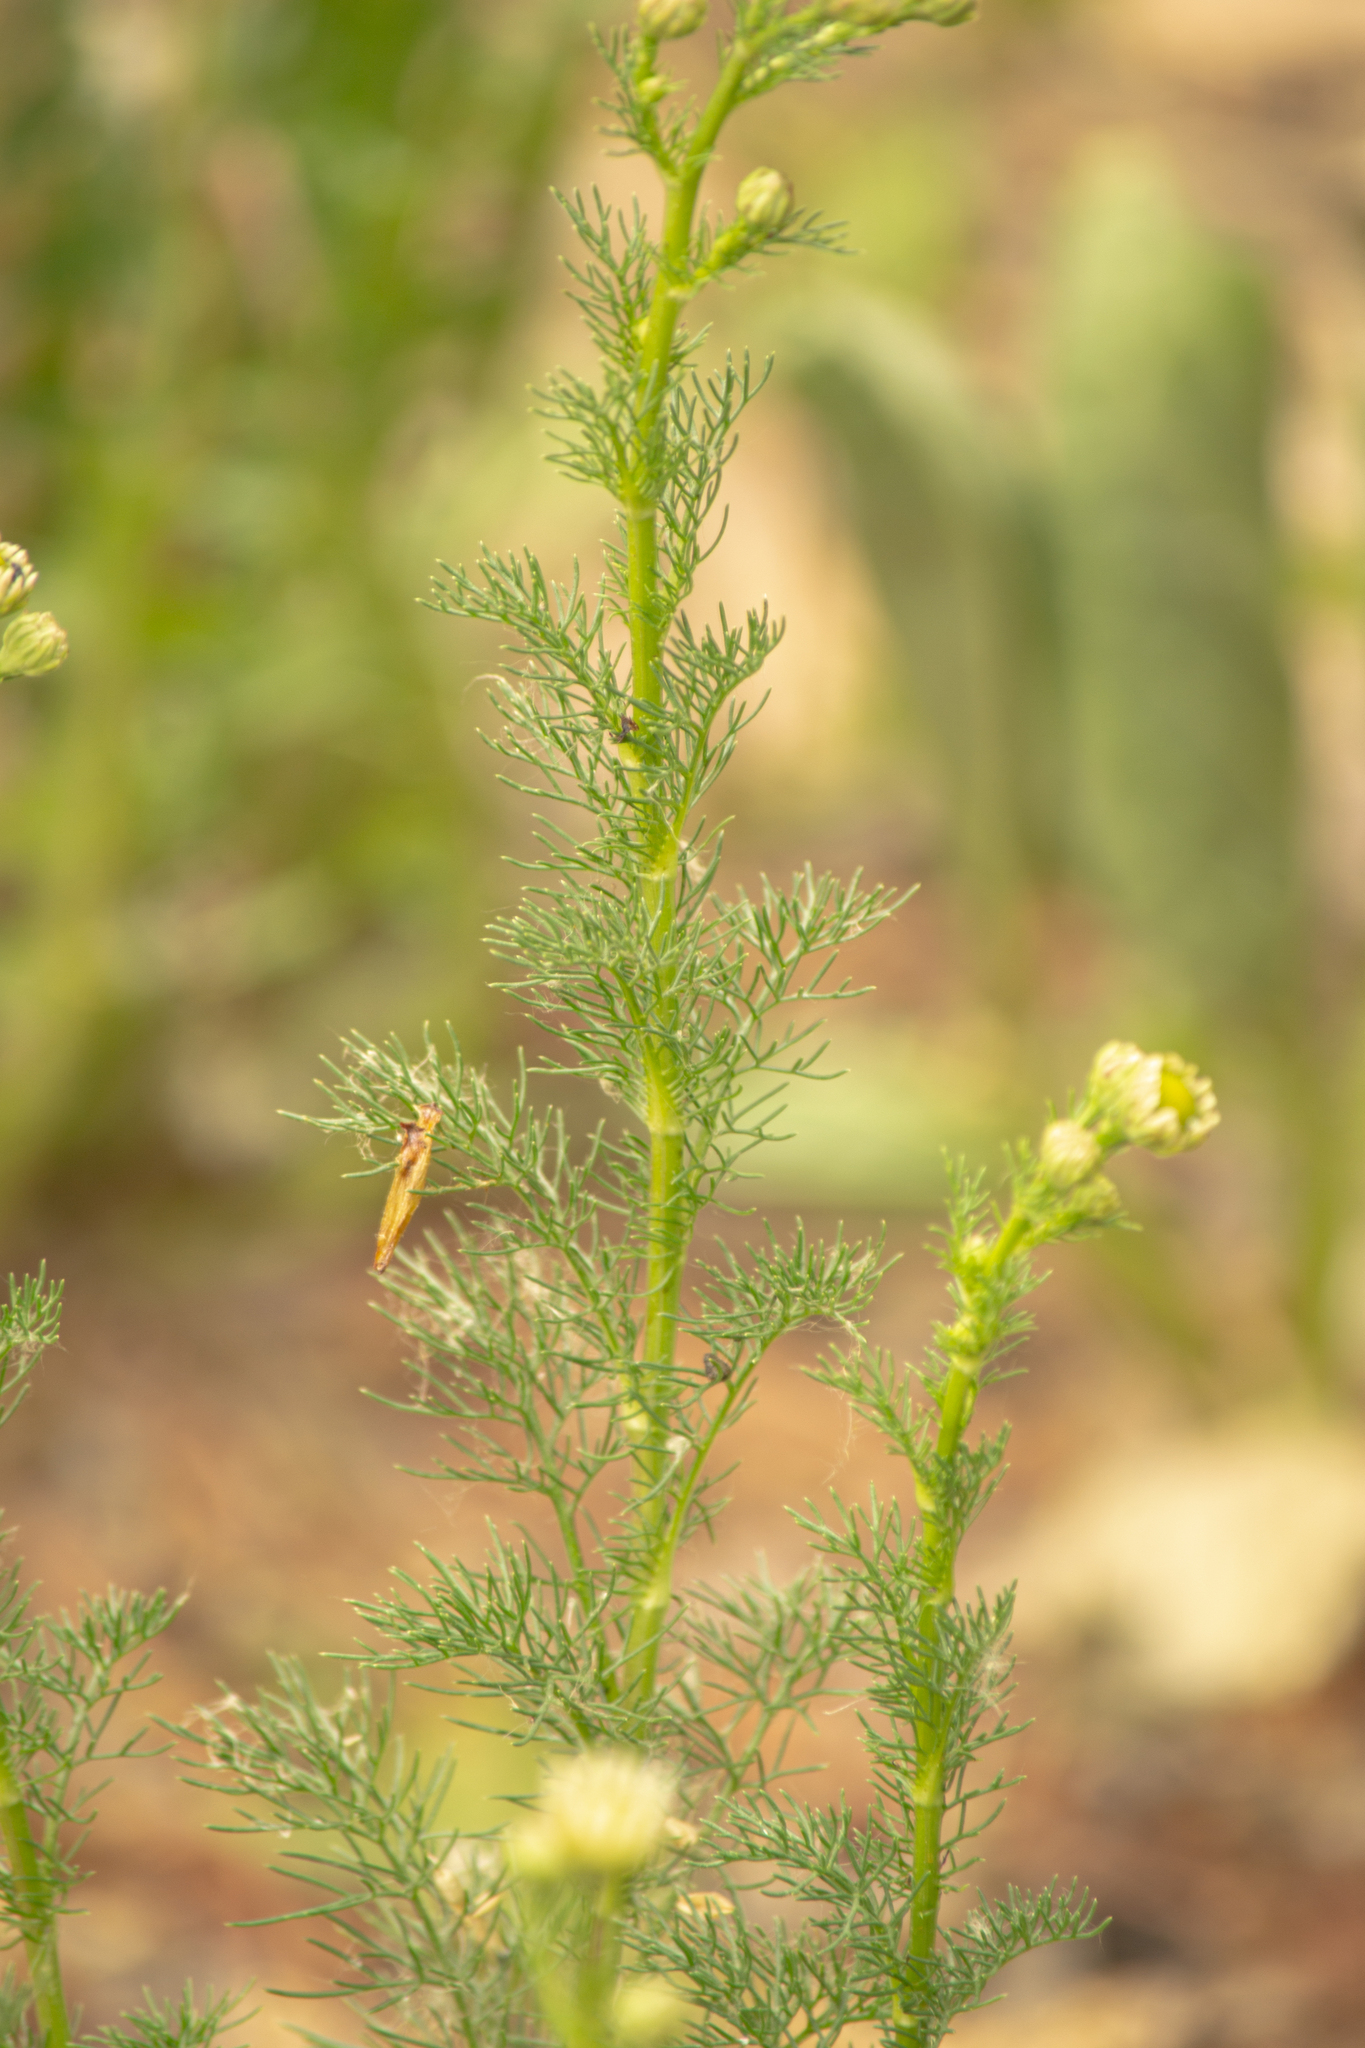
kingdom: Plantae
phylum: Tracheophyta
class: Magnoliopsida
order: Asterales
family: Asteraceae
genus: Tripleurospermum
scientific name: Tripleurospermum inodorum
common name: Scentless mayweed
